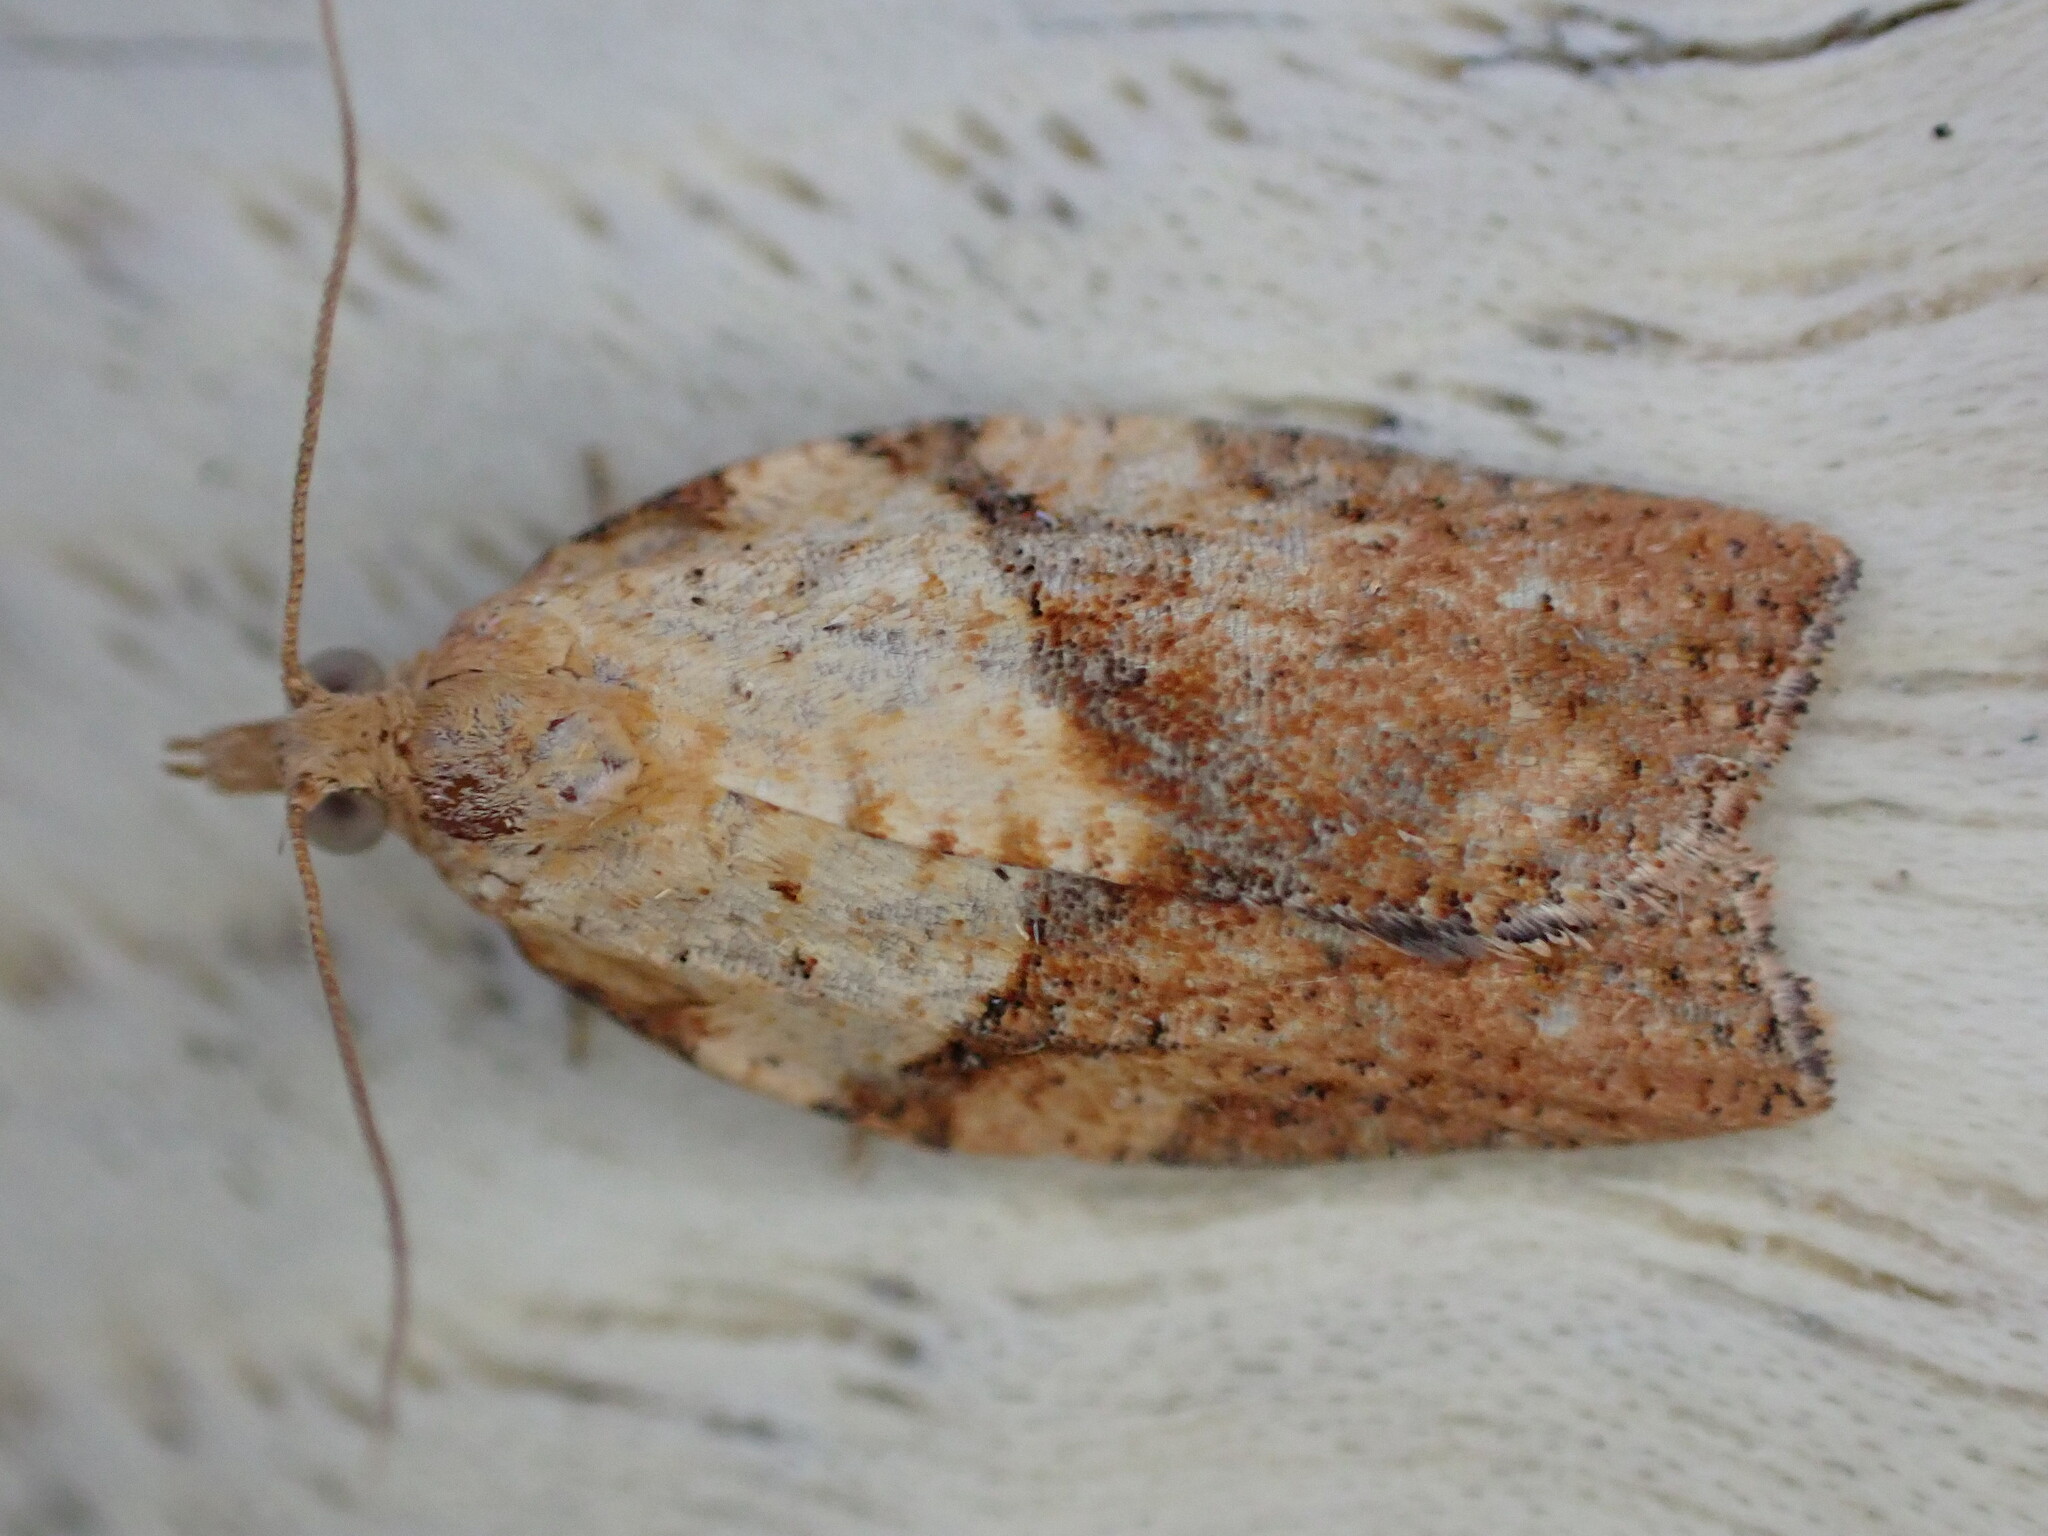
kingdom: Animalia
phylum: Arthropoda
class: Insecta
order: Lepidoptera
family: Tortricidae
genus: Epiphyas
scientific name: Epiphyas postvittana
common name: Light brown apple moth
